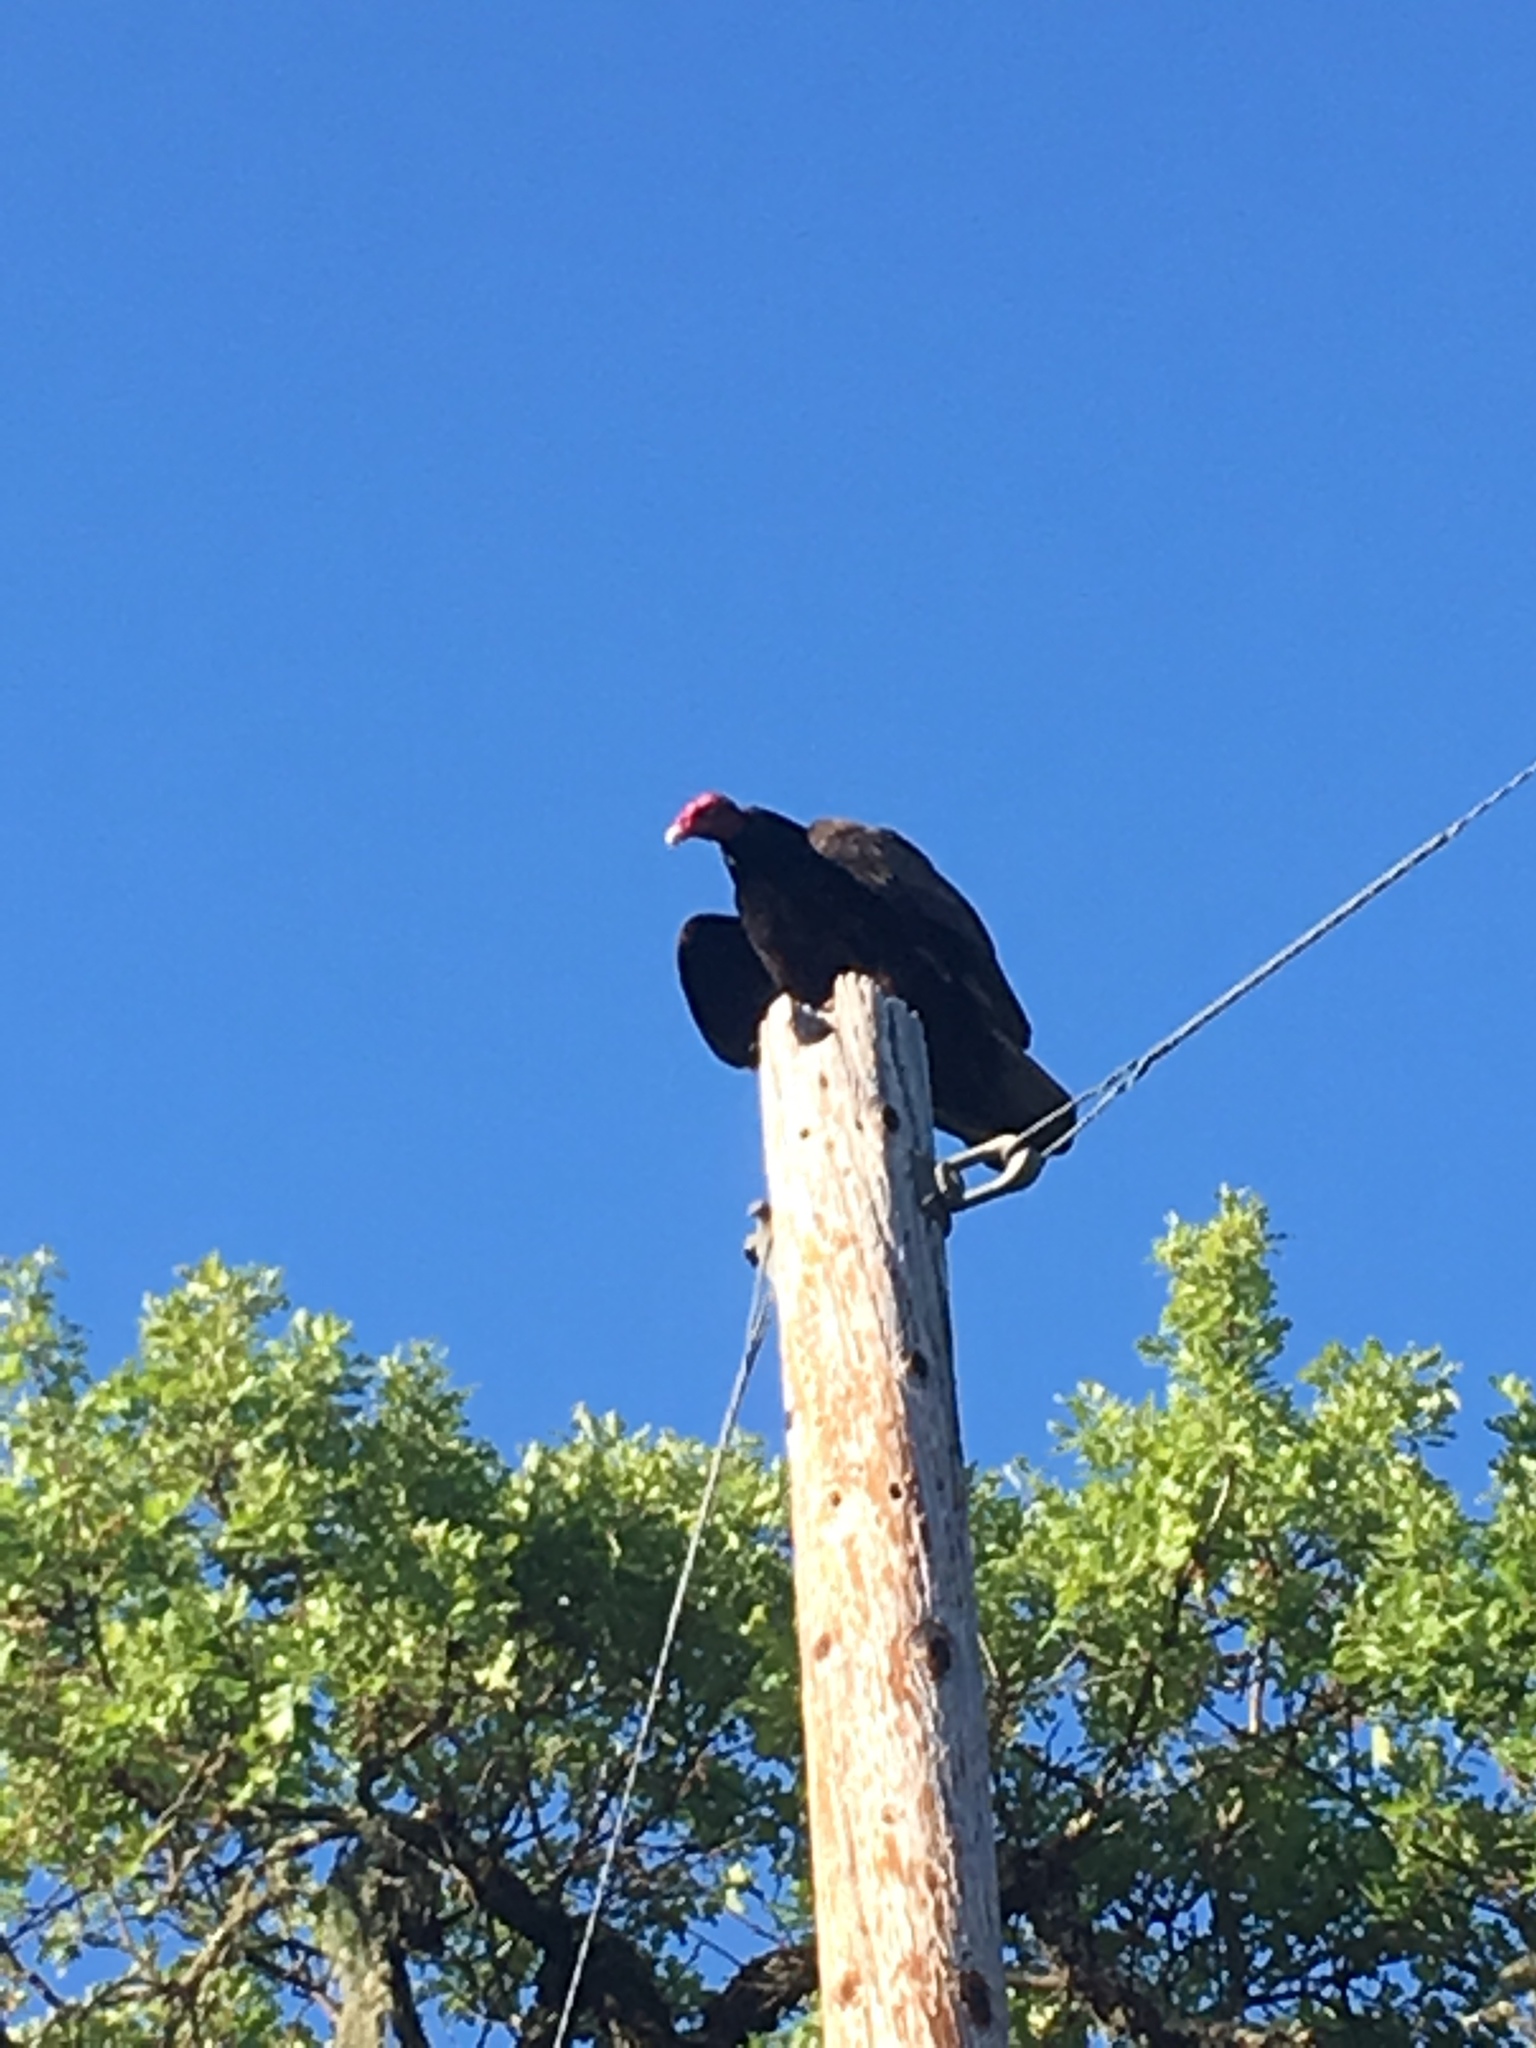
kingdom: Animalia
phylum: Chordata
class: Aves
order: Accipitriformes
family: Cathartidae
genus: Cathartes
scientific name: Cathartes aura
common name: Turkey vulture
